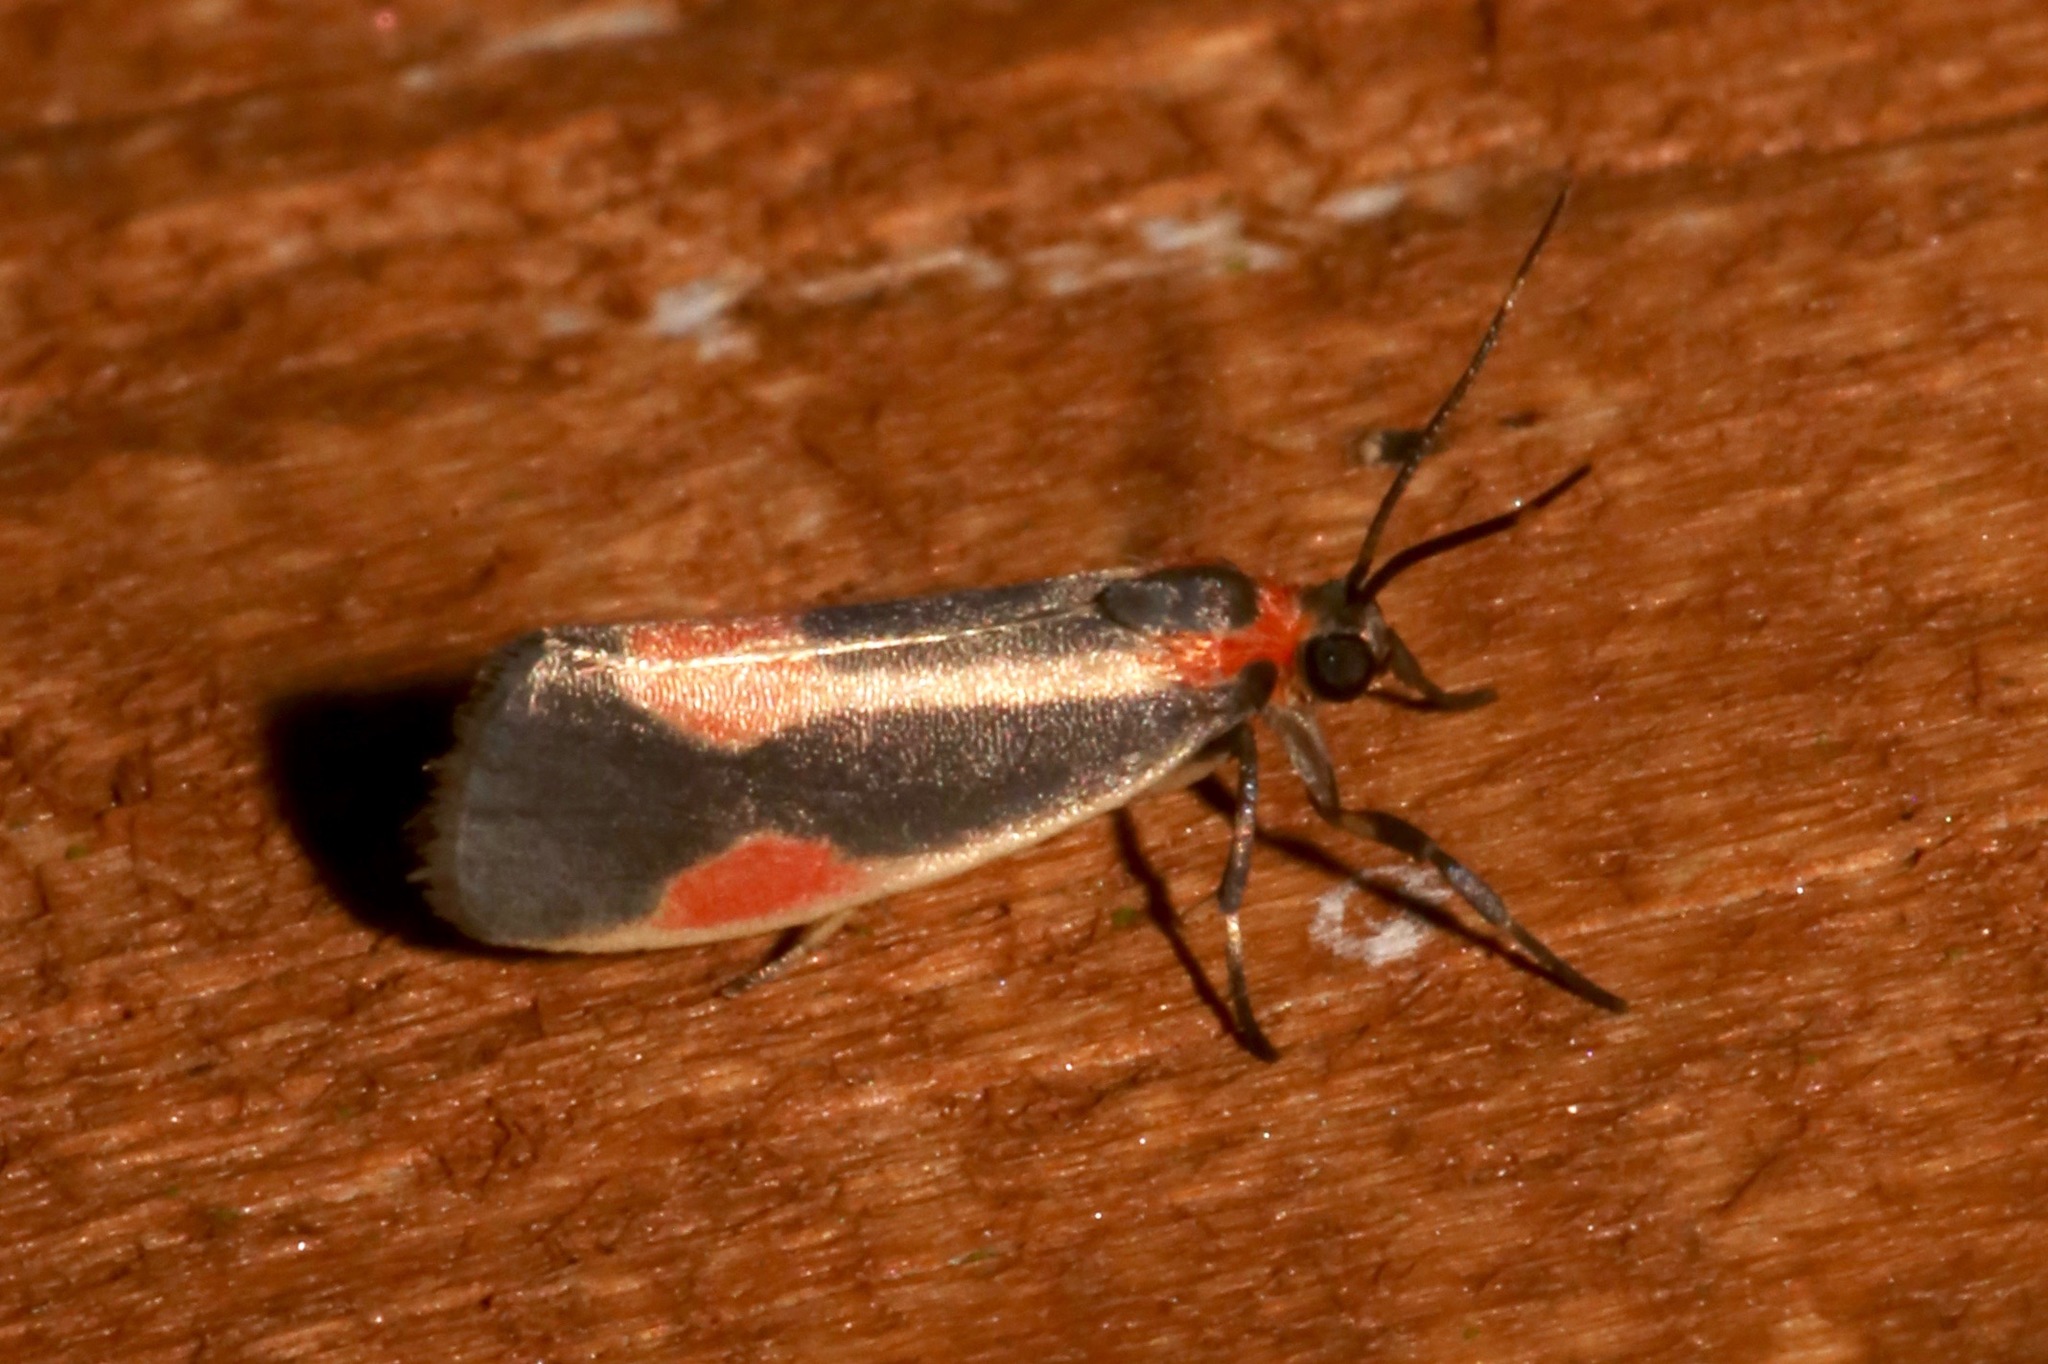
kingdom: Animalia
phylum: Arthropoda
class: Insecta
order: Lepidoptera
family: Erebidae
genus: Cisthene
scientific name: Cisthene packardii
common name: Packard's lichen moth
